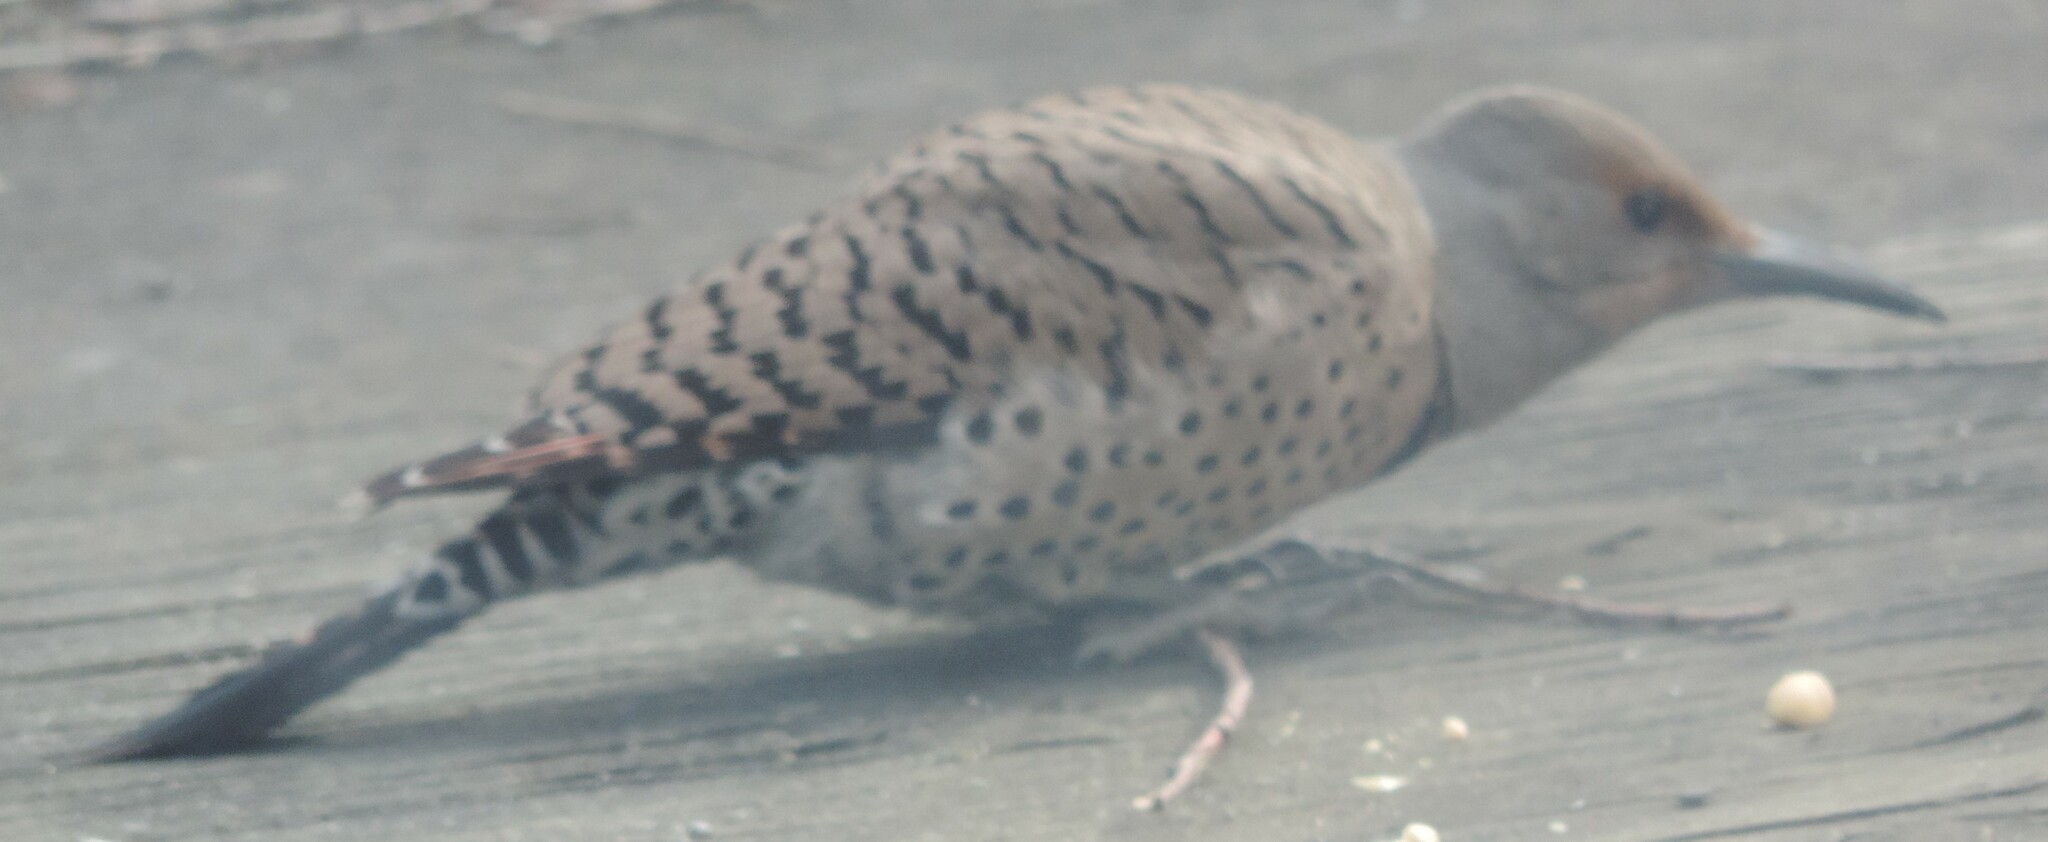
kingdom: Animalia
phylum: Chordata
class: Aves
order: Piciformes
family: Picidae
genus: Colaptes
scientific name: Colaptes auratus
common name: Northern flicker
